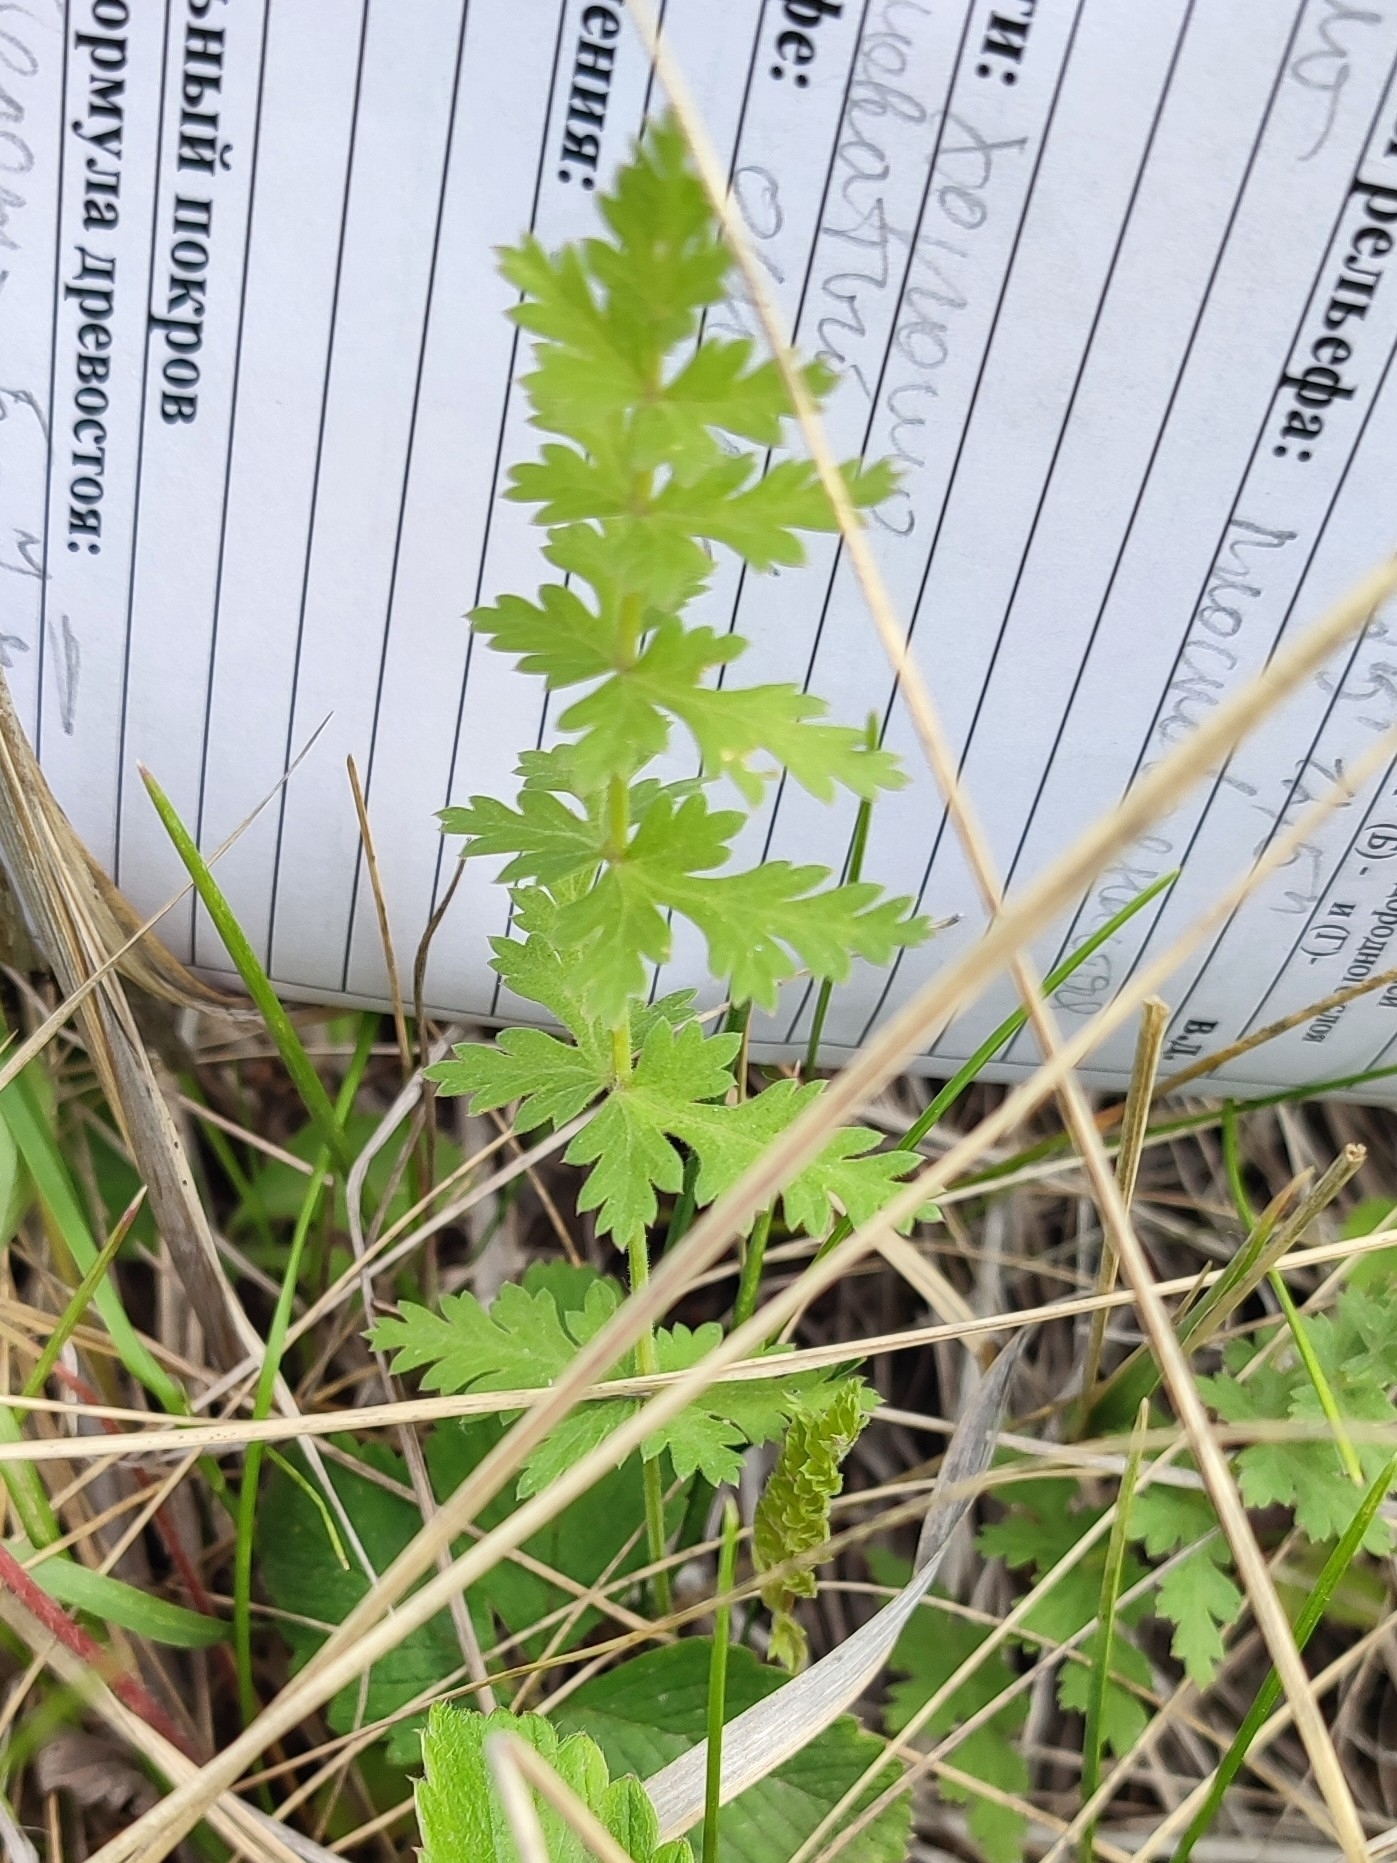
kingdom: Plantae
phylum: Tracheophyta
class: Magnoliopsida
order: Apiales
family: Apiaceae
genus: Seseli
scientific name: Seseli libanotis
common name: Mooncarrot
